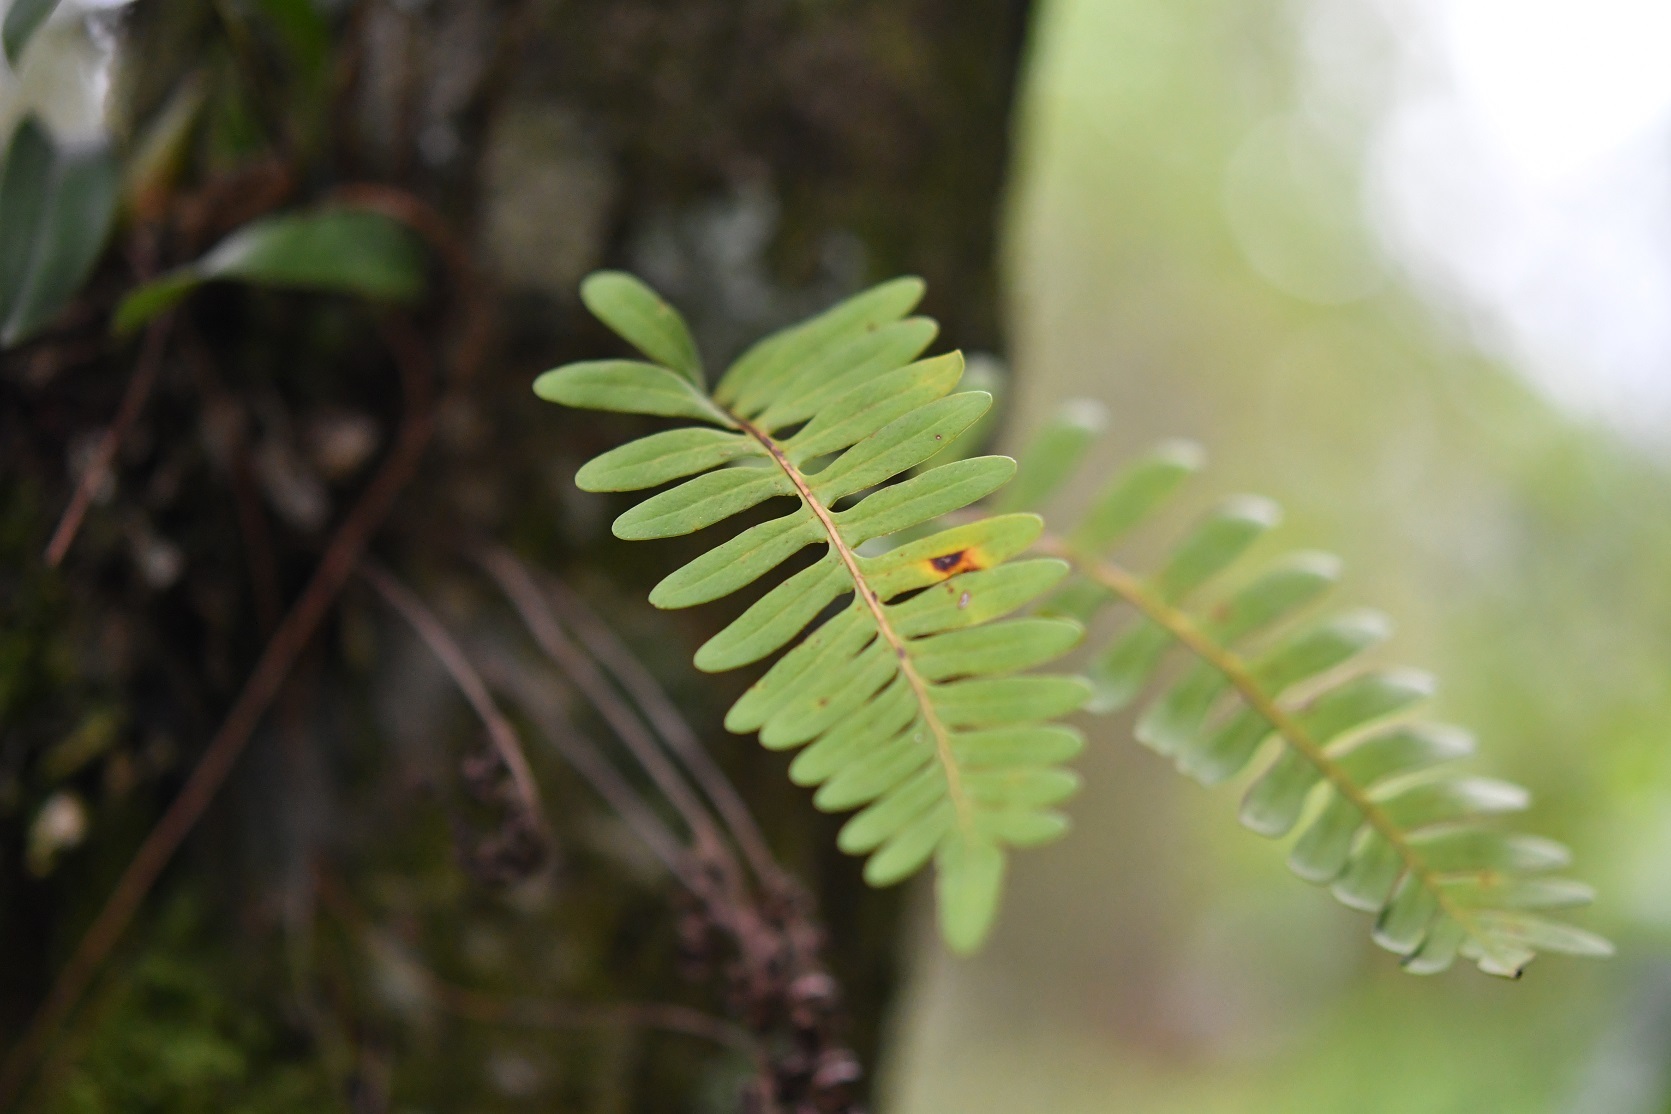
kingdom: Plantae
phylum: Tracheophyta
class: Polypodiopsida
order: Polypodiales
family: Polypodiaceae
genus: Pleopeltis
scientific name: Pleopeltis alansmithii
